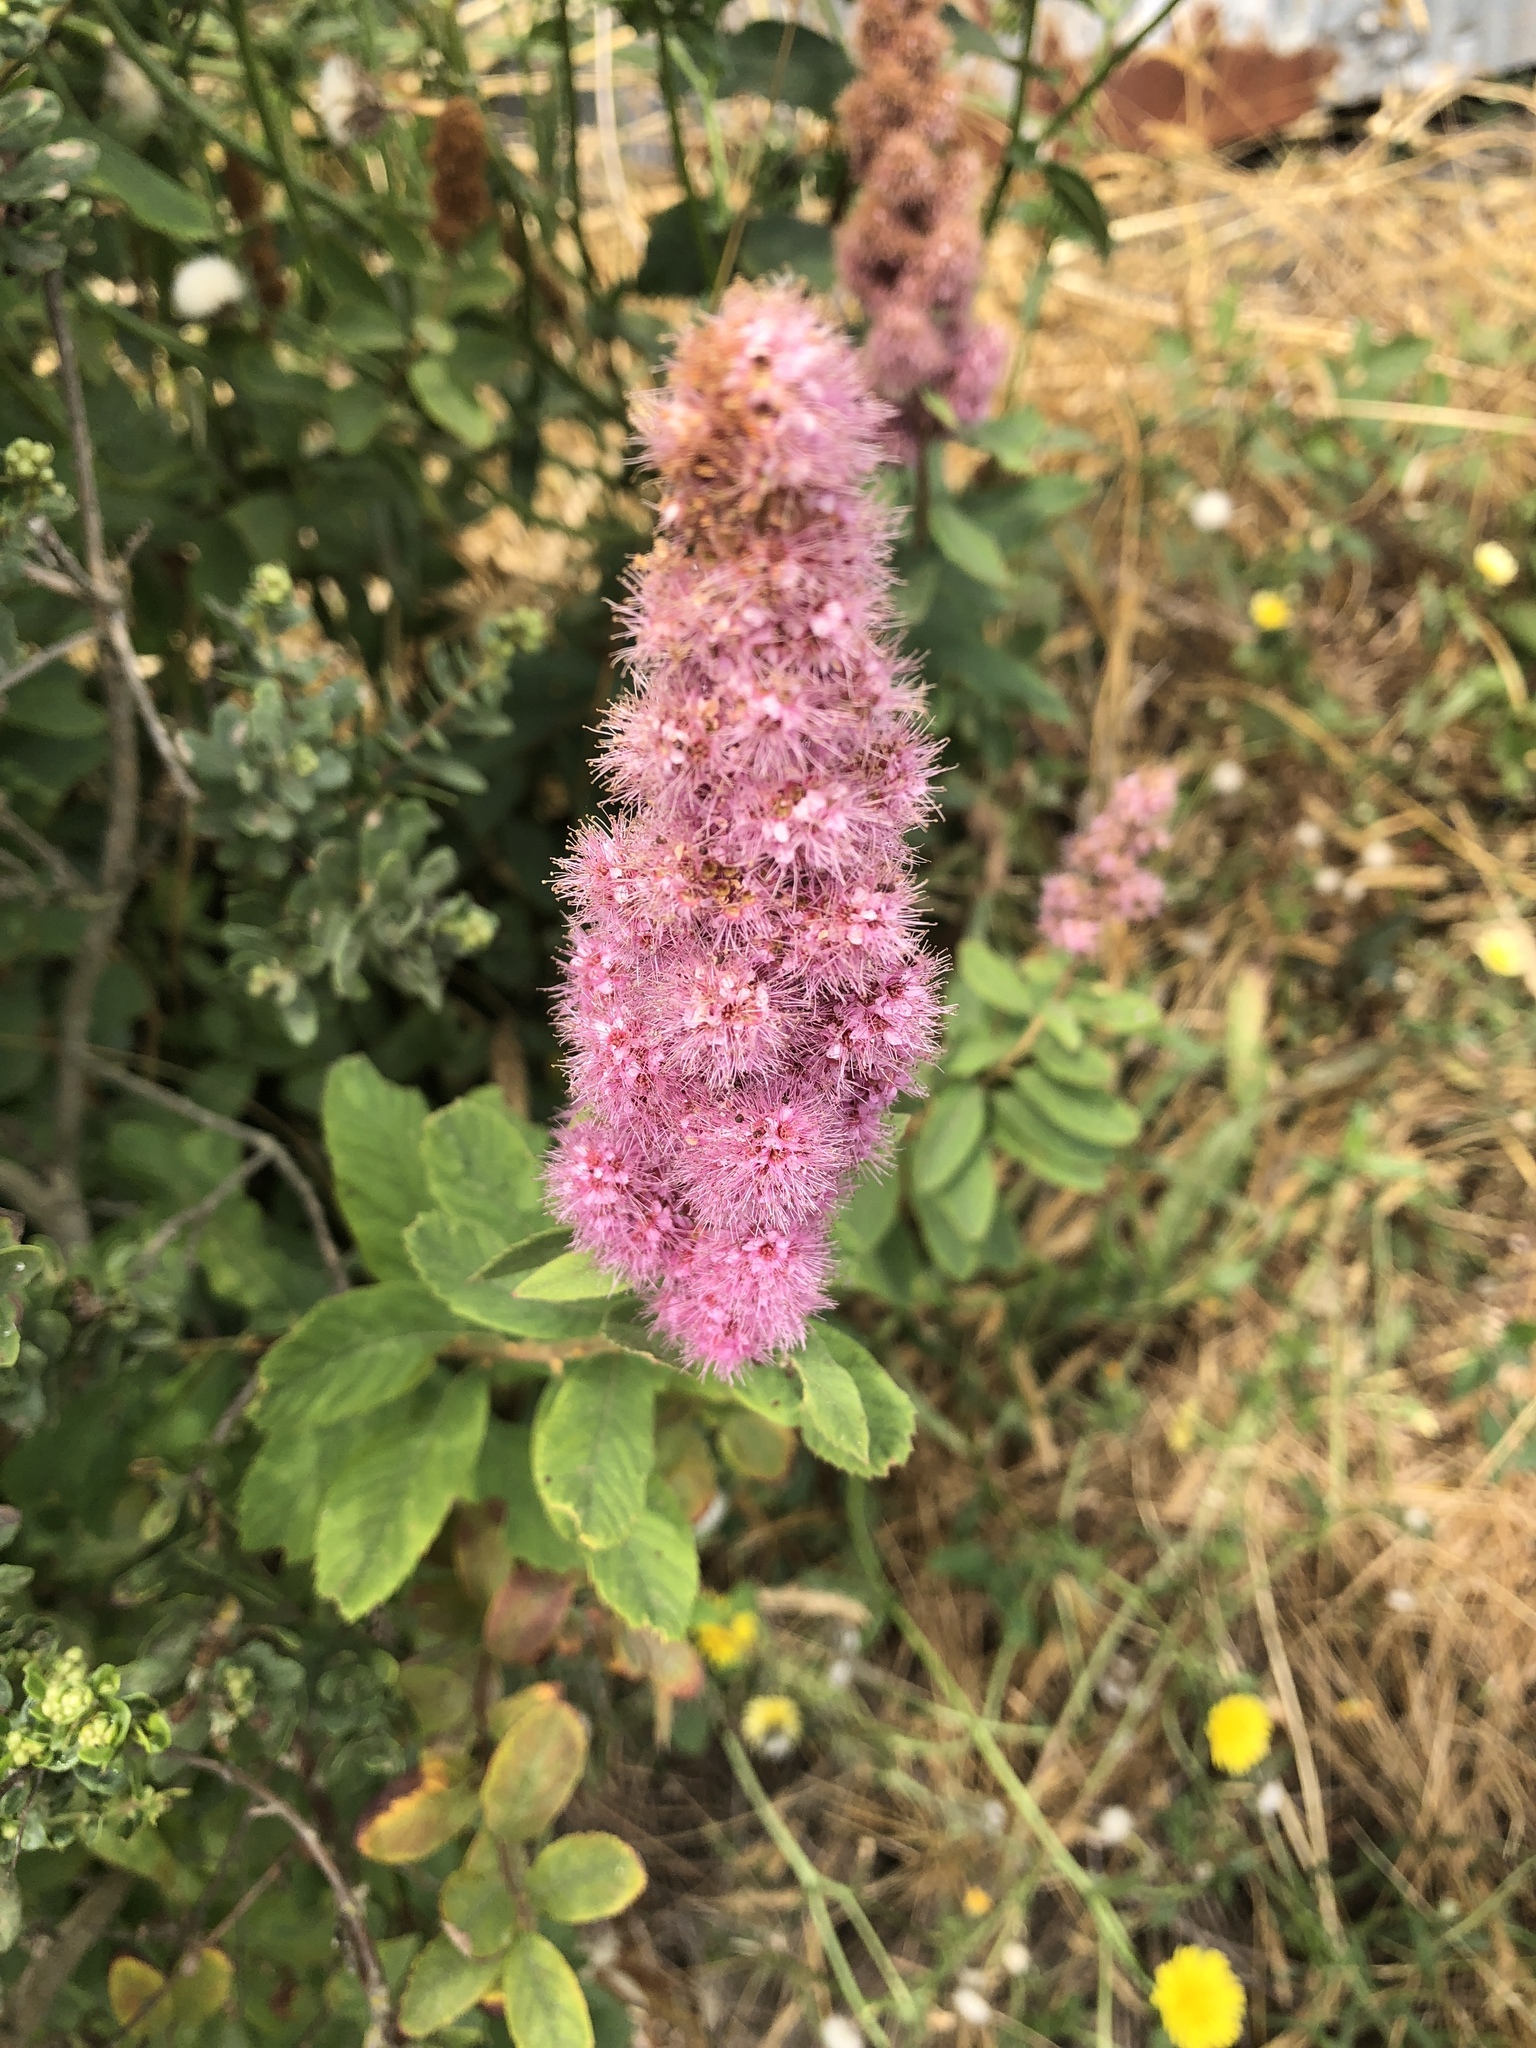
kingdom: Plantae
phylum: Tracheophyta
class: Magnoliopsida
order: Rosales
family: Rosaceae
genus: Spiraea
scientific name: Spiraea douglasii
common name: Steeplebush
